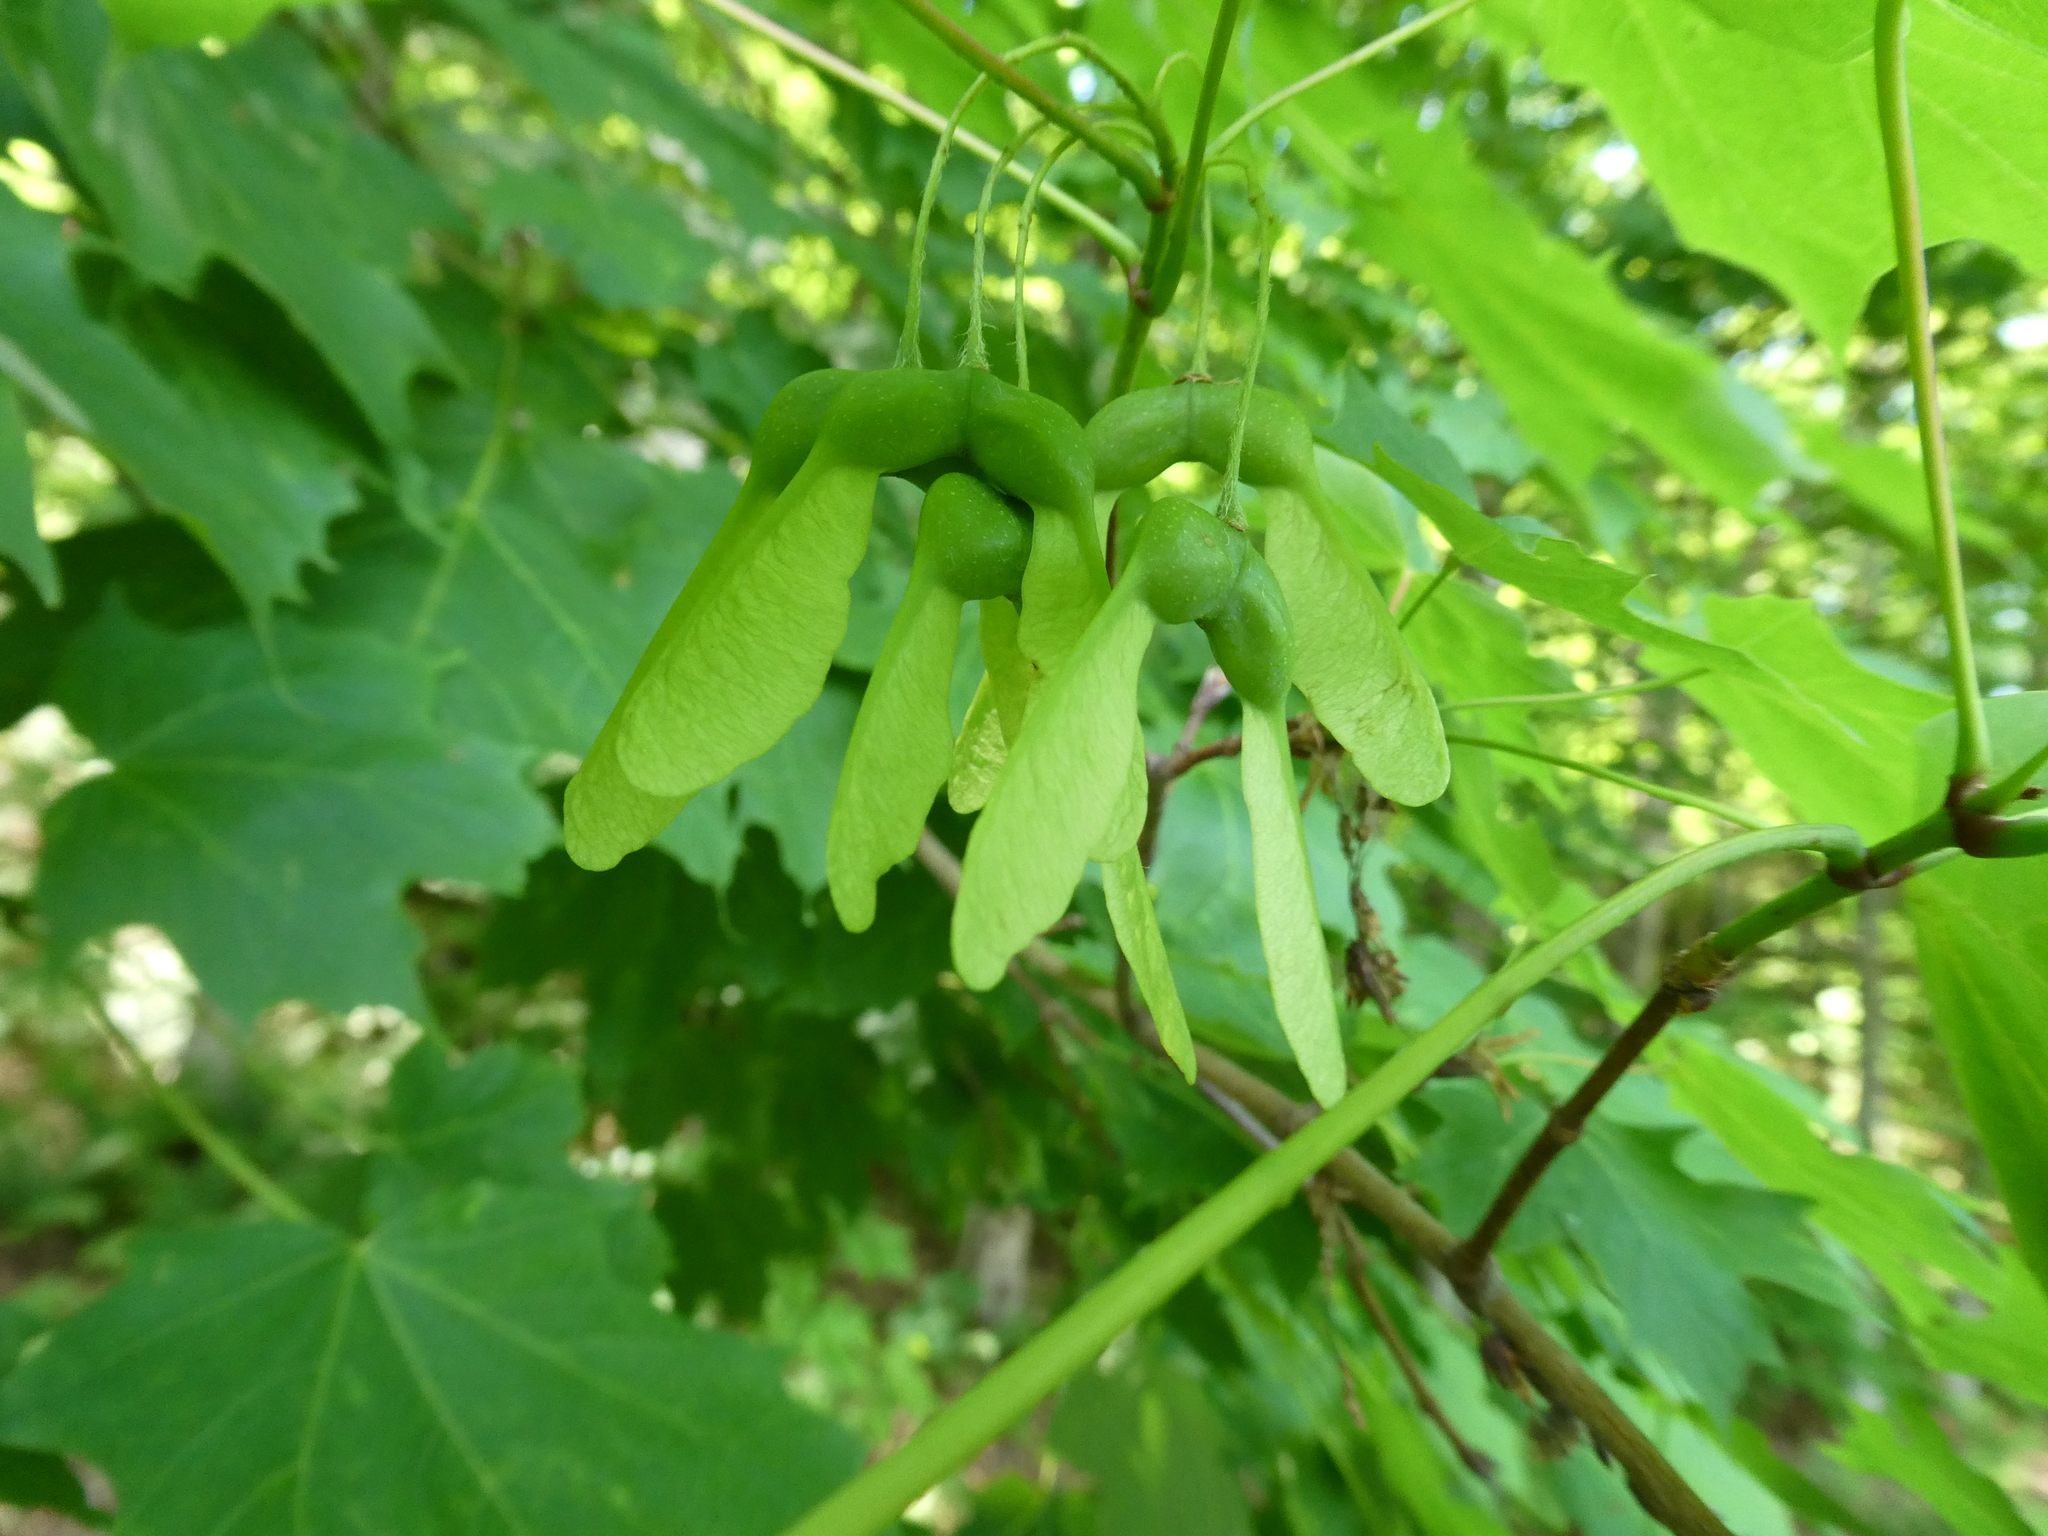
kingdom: Plantae
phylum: Tracheophyta
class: Magnoliopsida
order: Sapindales
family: Sapindaceae
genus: Acer
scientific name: Acer saccharum
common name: Sugar maple
